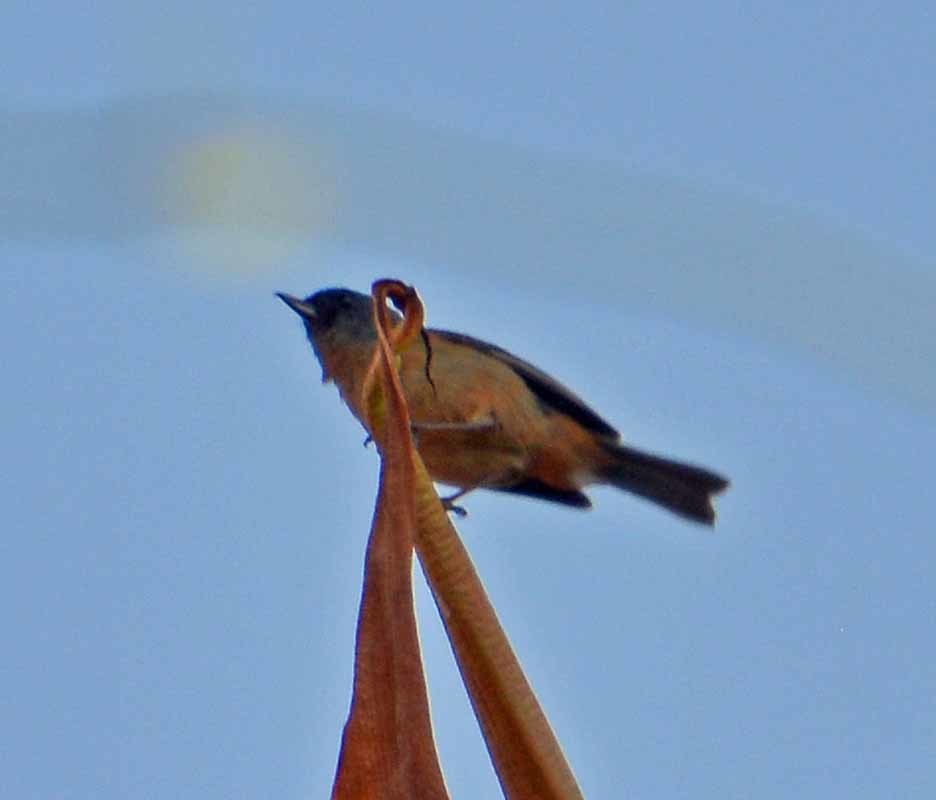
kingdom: Animalia
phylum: Chordata
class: Aves
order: Passeriformes
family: Thraupidae
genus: Diglossa
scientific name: Diglossa baritula
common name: Cinnamon-bellied flowerpiercer
